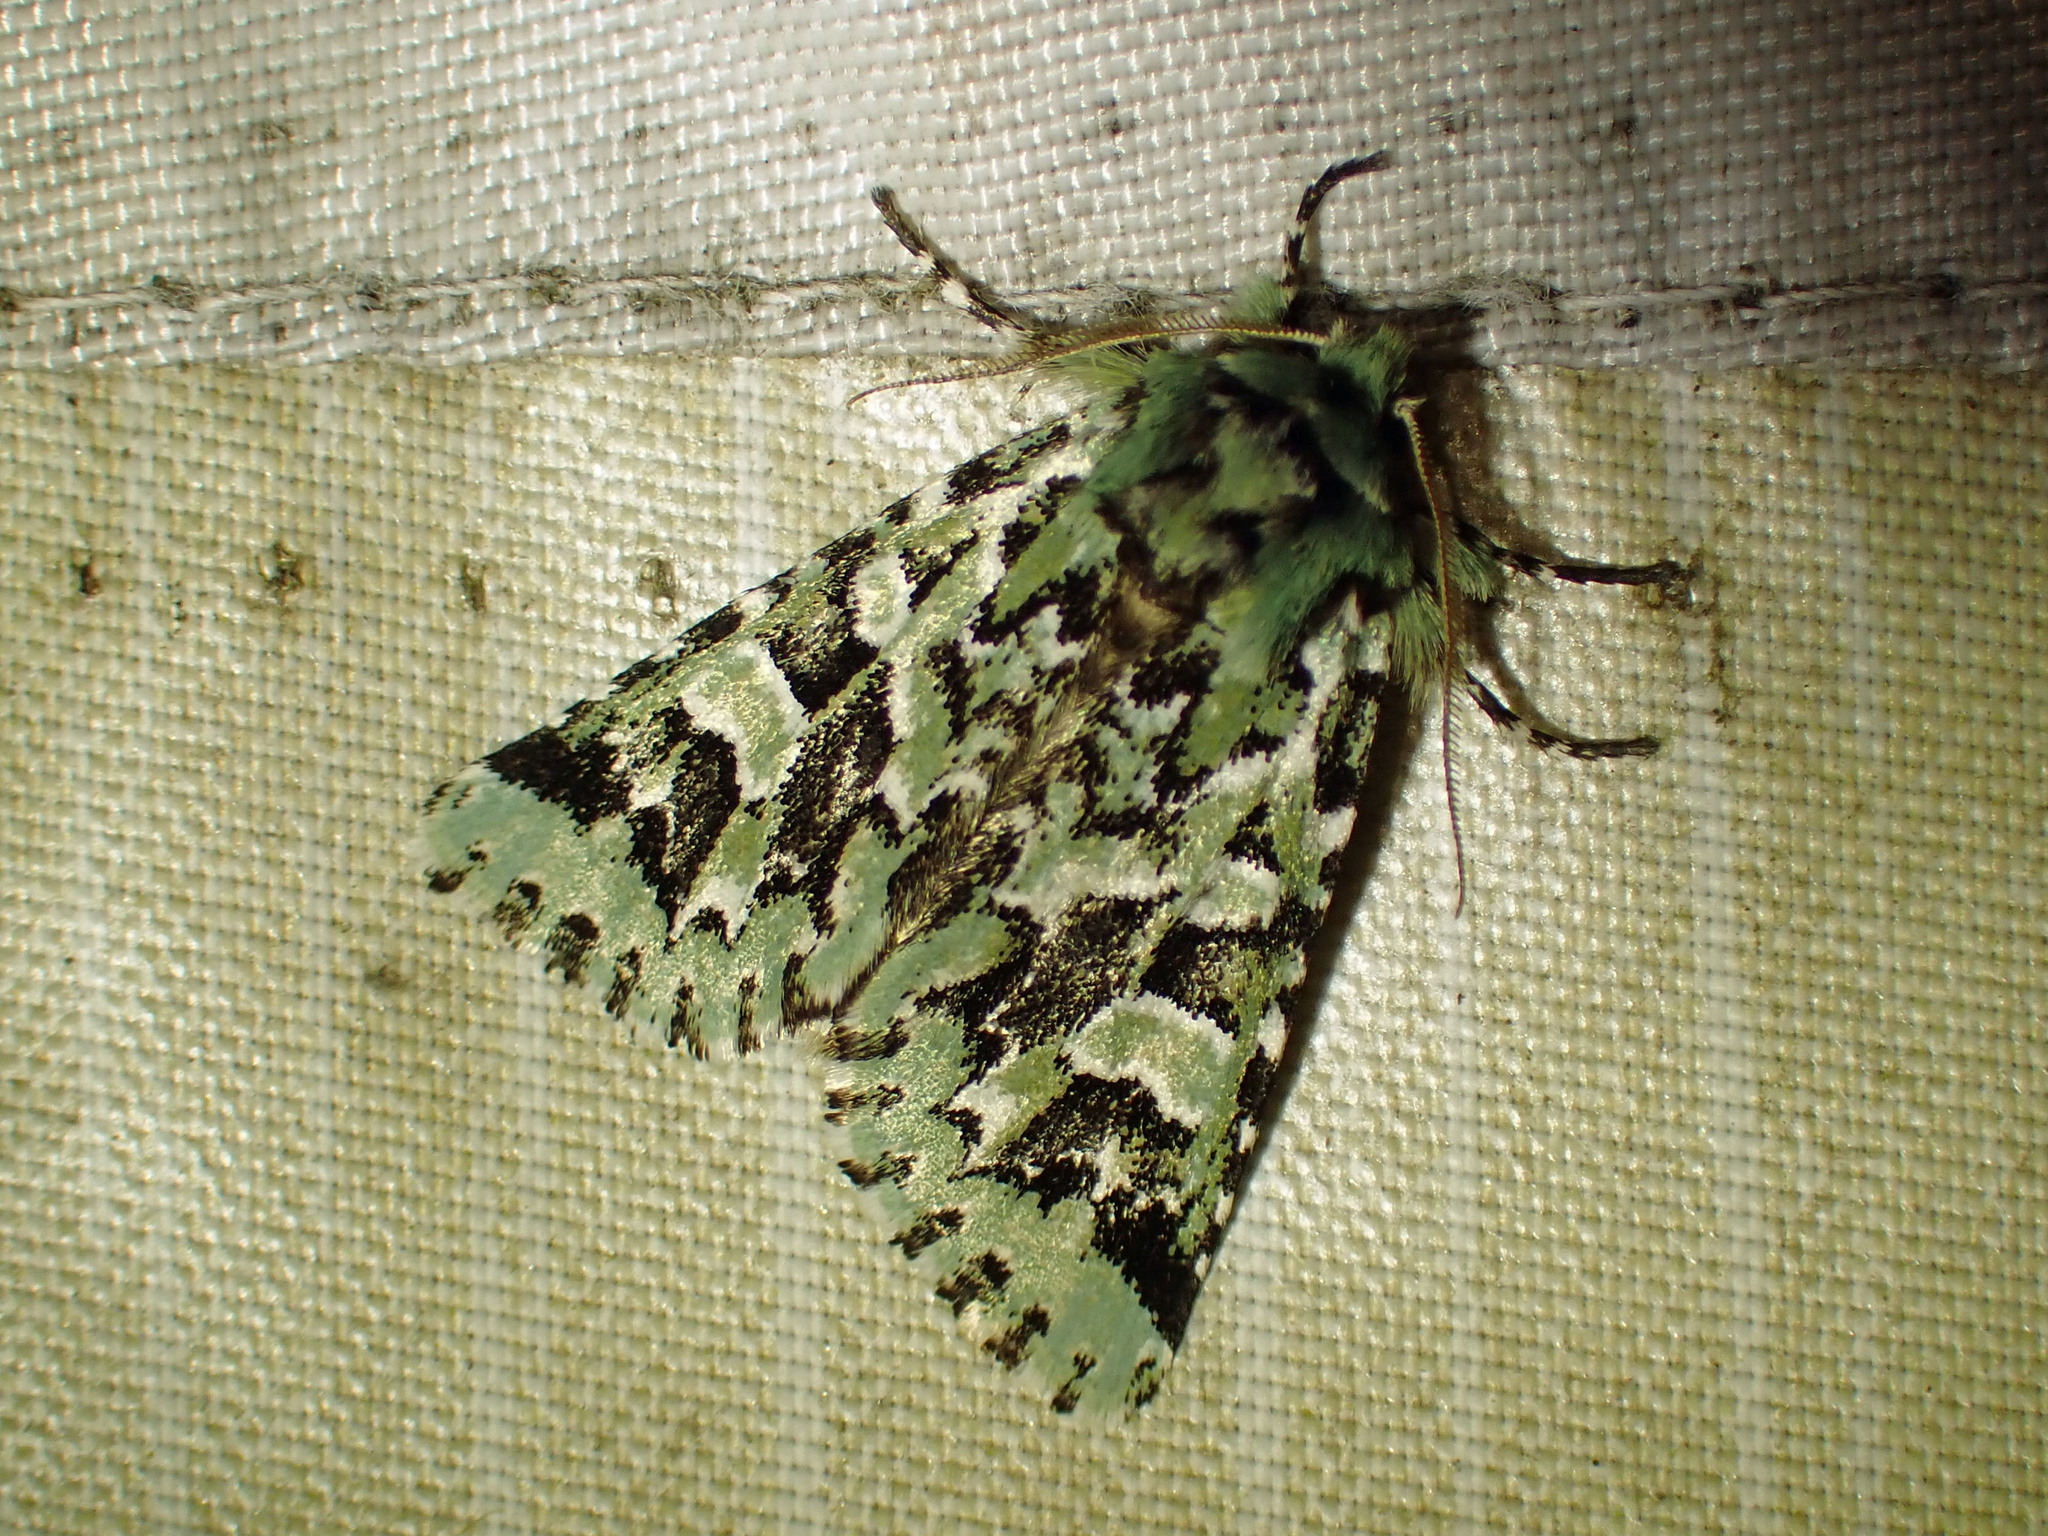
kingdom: Animalia
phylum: Arthropoda
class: Insecta
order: Lepidoptera
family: Noctuidae
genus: Feralia
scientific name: Feralia comstocki
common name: Comstock's sallow
